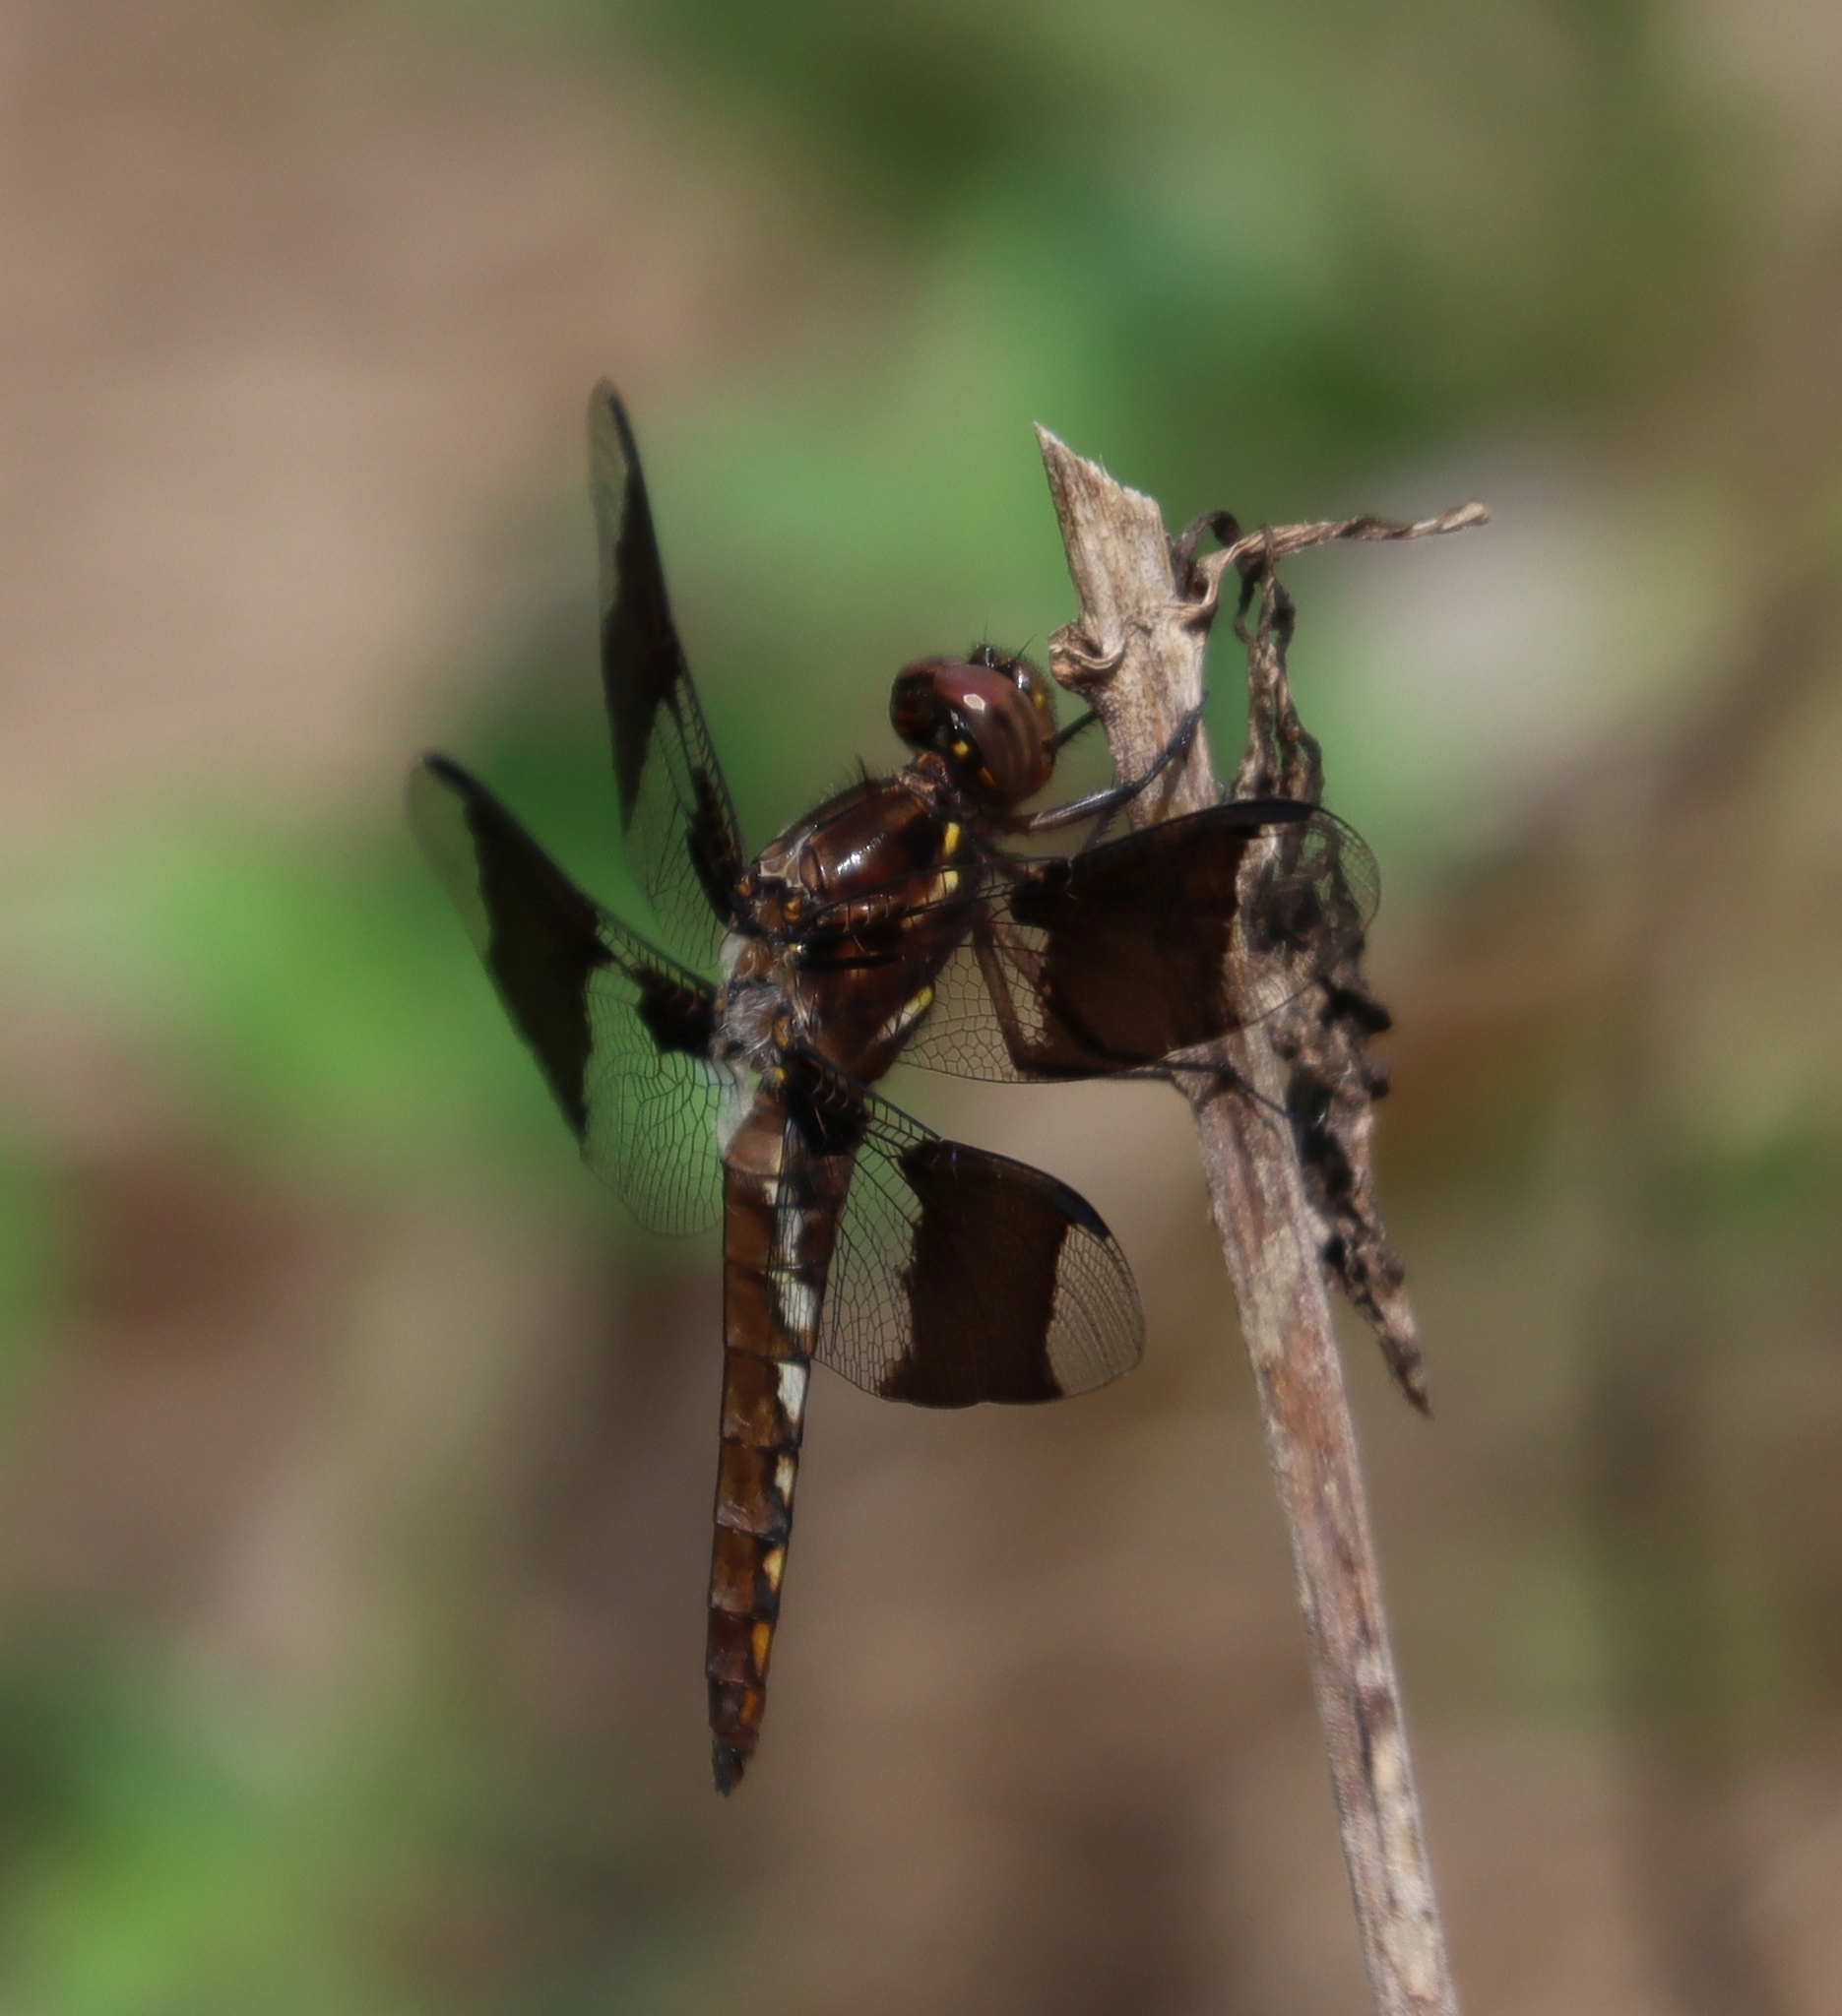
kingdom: Animalia
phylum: Arthropoda
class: Insecta
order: Odonata
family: Libellulidae
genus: Plathemis
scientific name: Plathemis lydia
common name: Common whitetail
